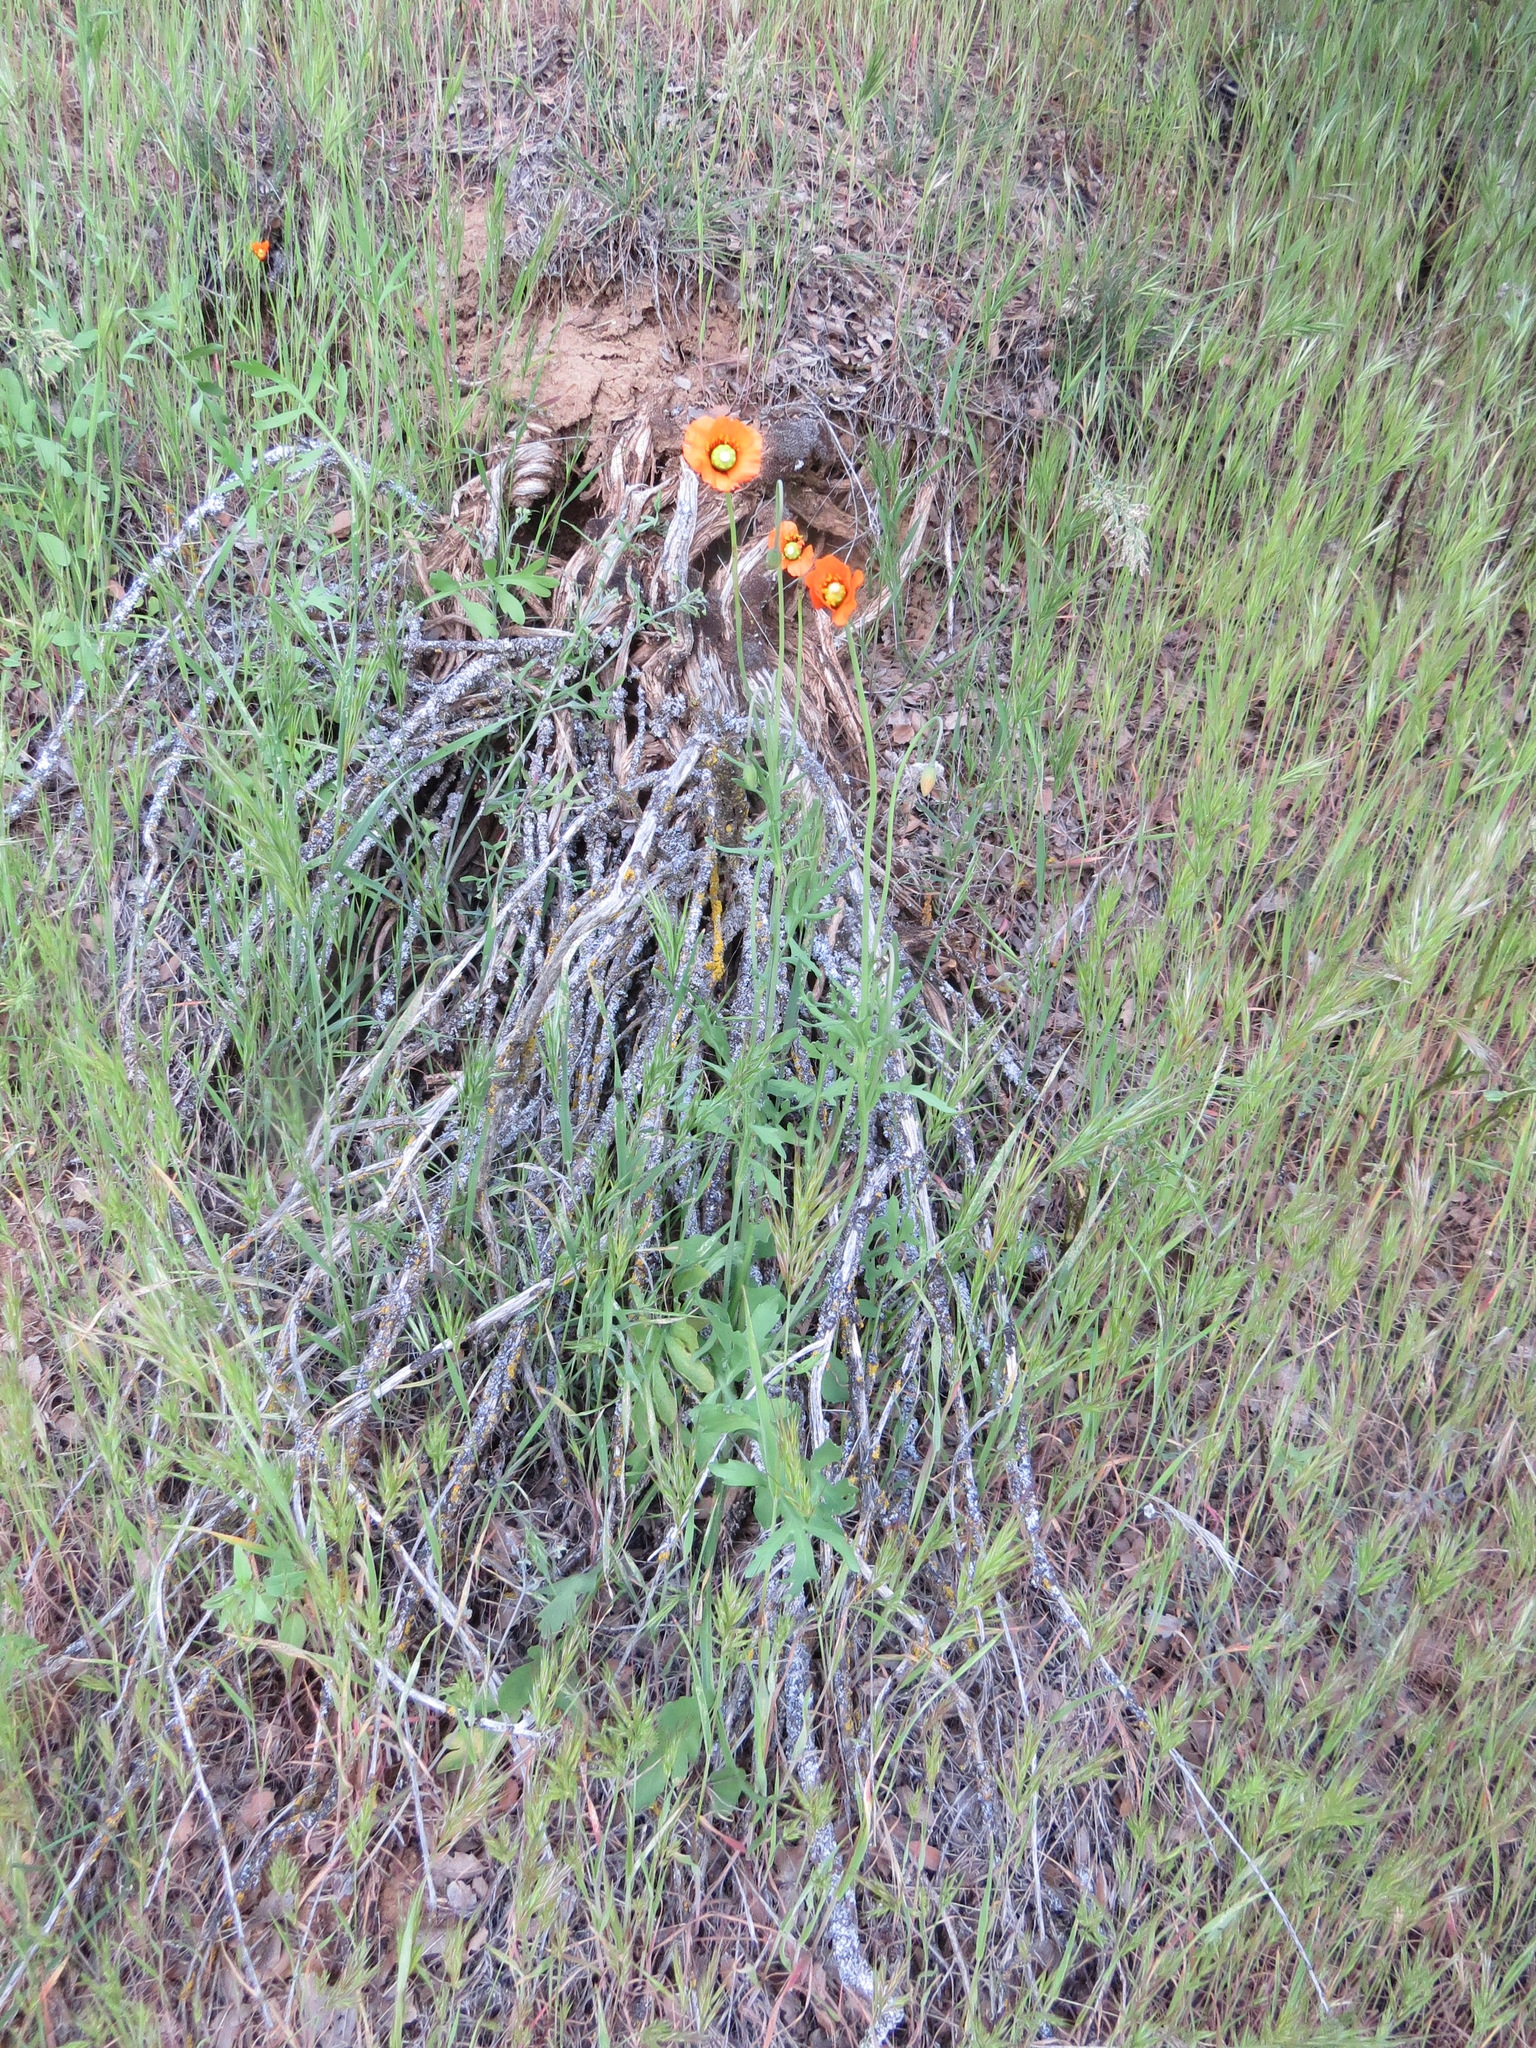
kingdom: Plantae
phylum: Tracheophyta
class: Magnoliopsida
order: Ranunculales
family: Papaveraceae
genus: Stylomecon
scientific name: Stylomecon heterophylla
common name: Flaming-poppy
